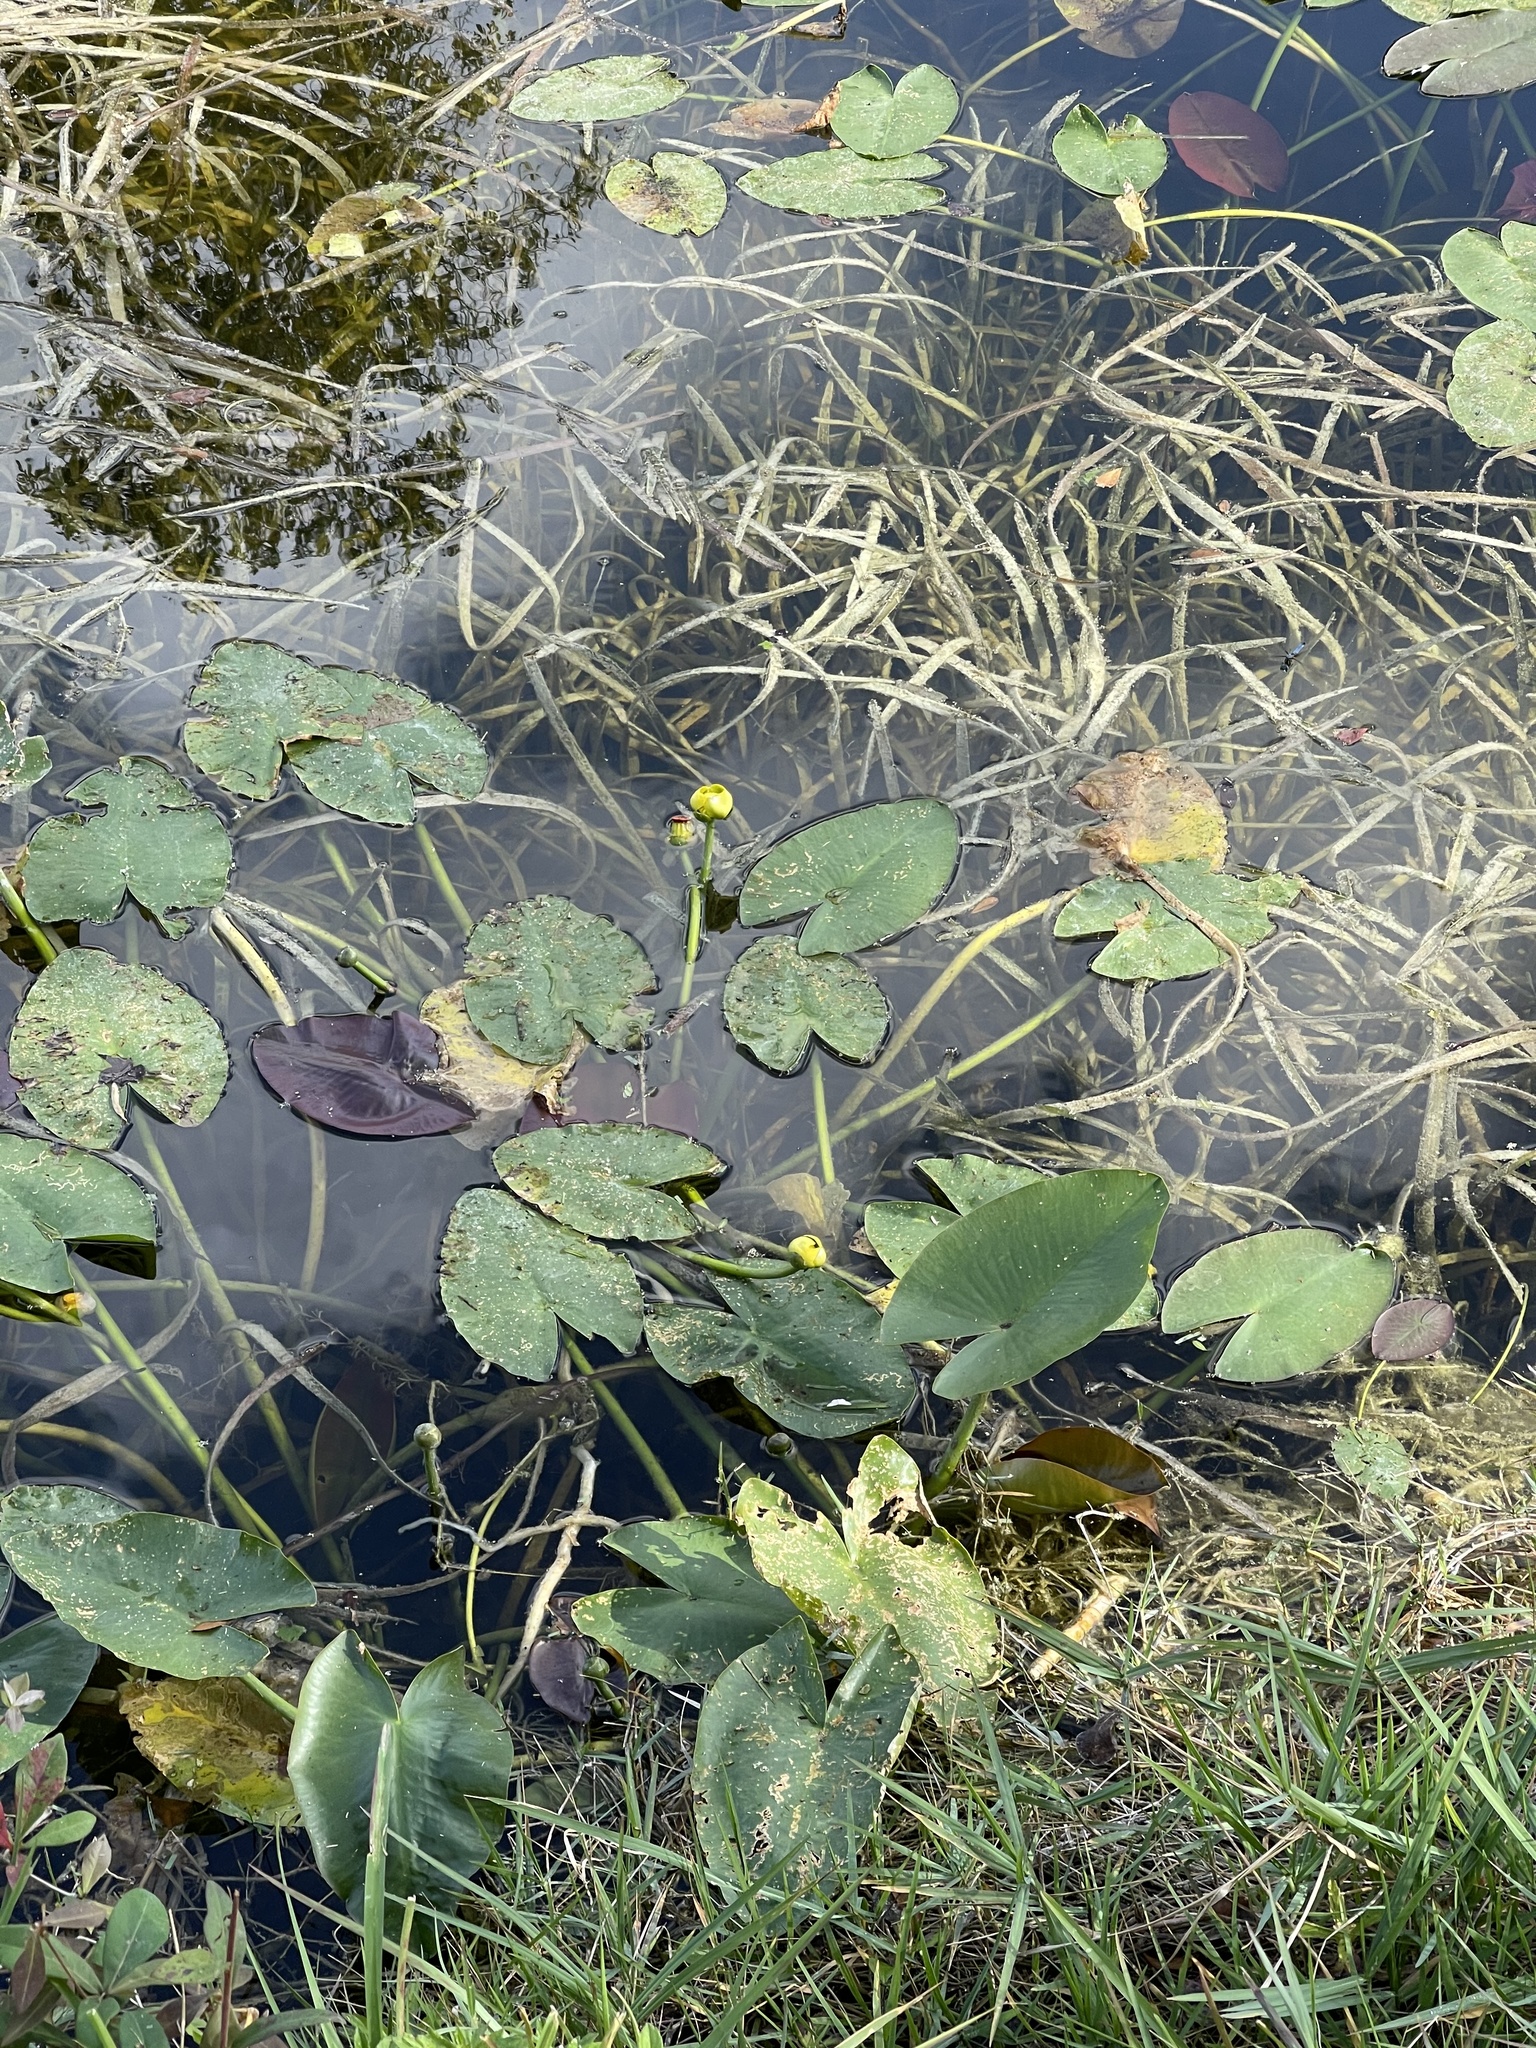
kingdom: Plantae
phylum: Tracheophyta
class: Magnoliopsida
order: Nymphaeales
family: Nymphaeaceae
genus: Nuphar
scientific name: Nuphar advena
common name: Spatter-dock
